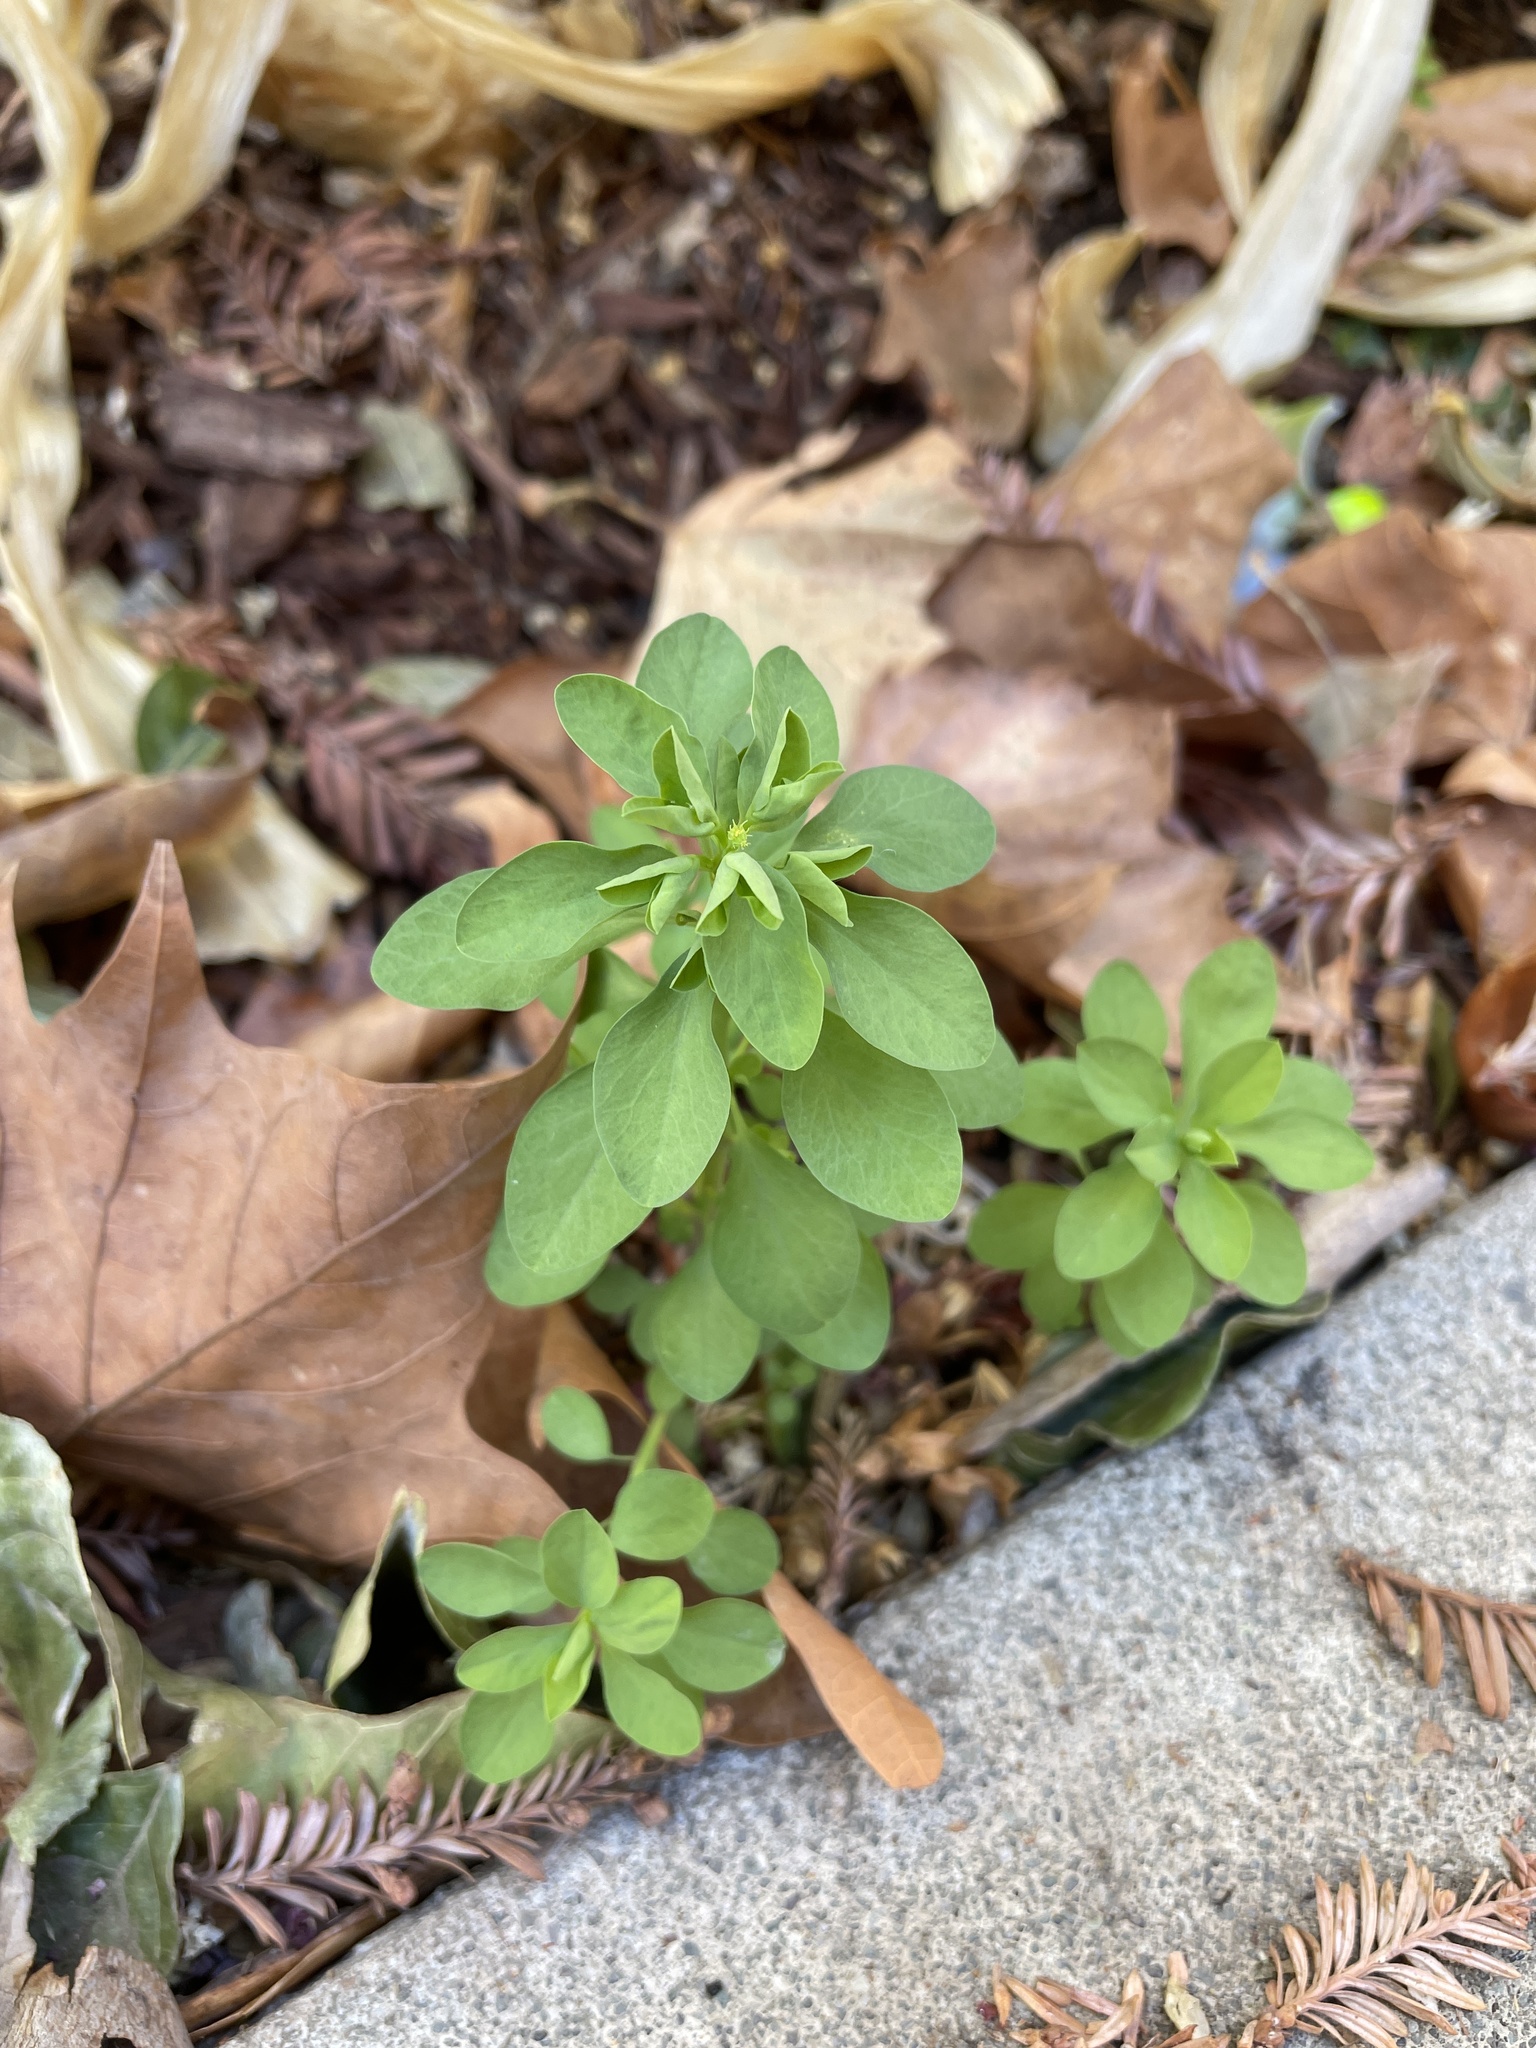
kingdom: Plantae
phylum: Tracheophyta
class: Magnoliopsida
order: Malpighiales
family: Euphorbiaceae
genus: Euphorbia
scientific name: Euphorbia peplus
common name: Petty spurge
